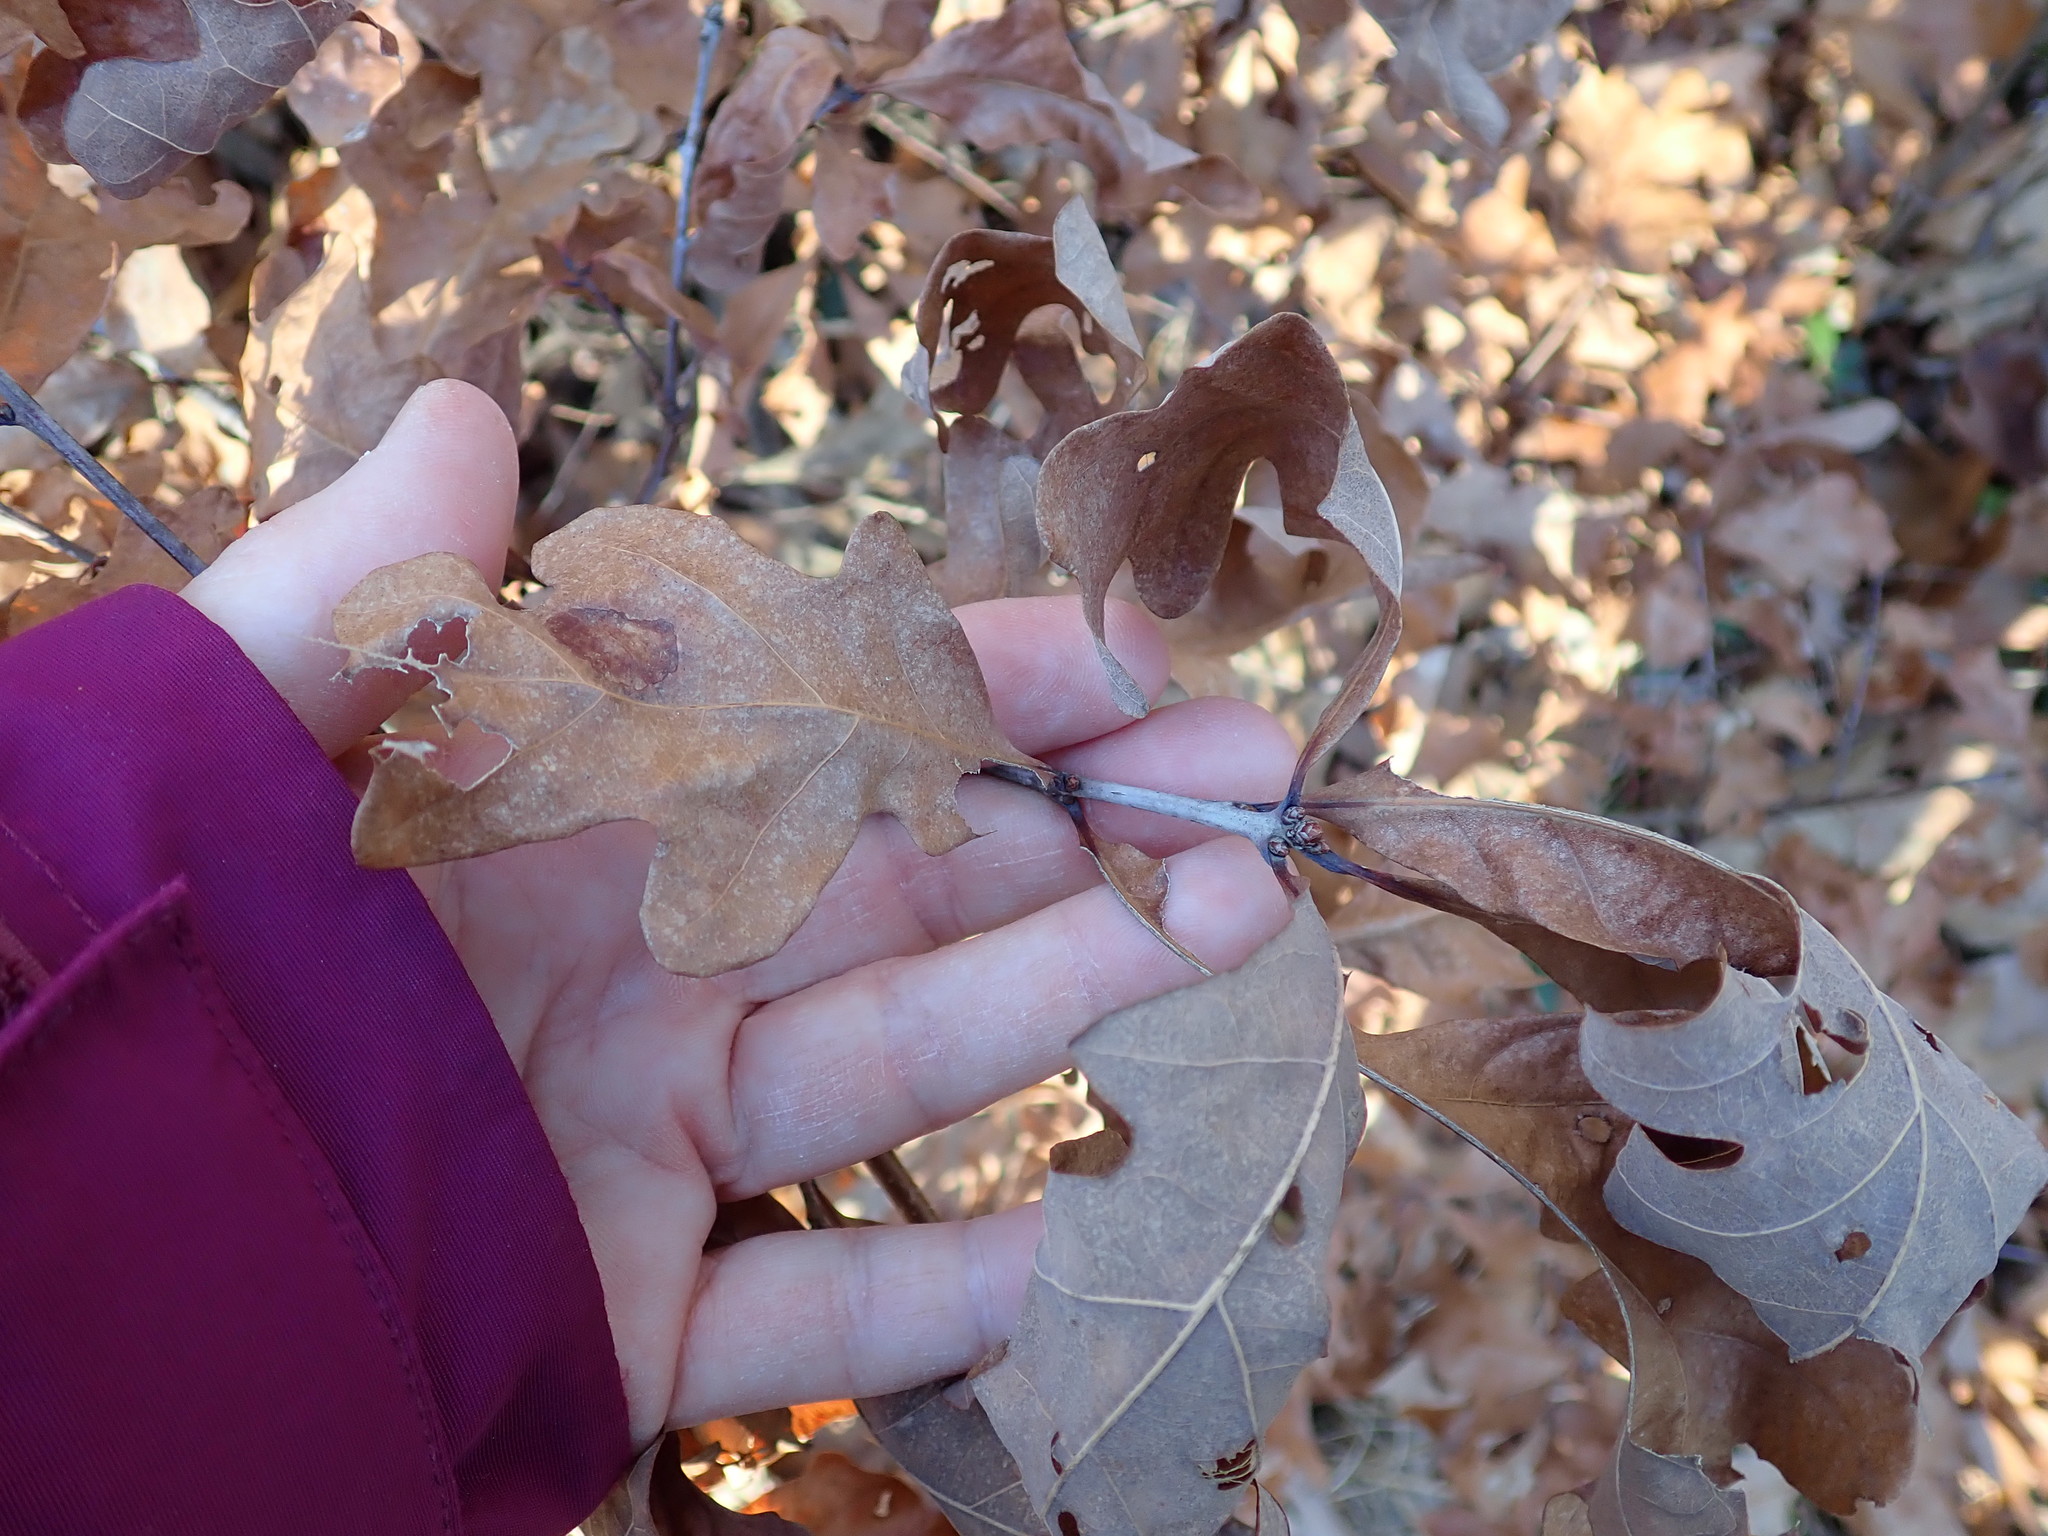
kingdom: Plantae
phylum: Tracheophyta
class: Magnoliopsida
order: Fagales
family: Fagaceae
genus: Quercus
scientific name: Quercus ilicifolia
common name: Bear oak
